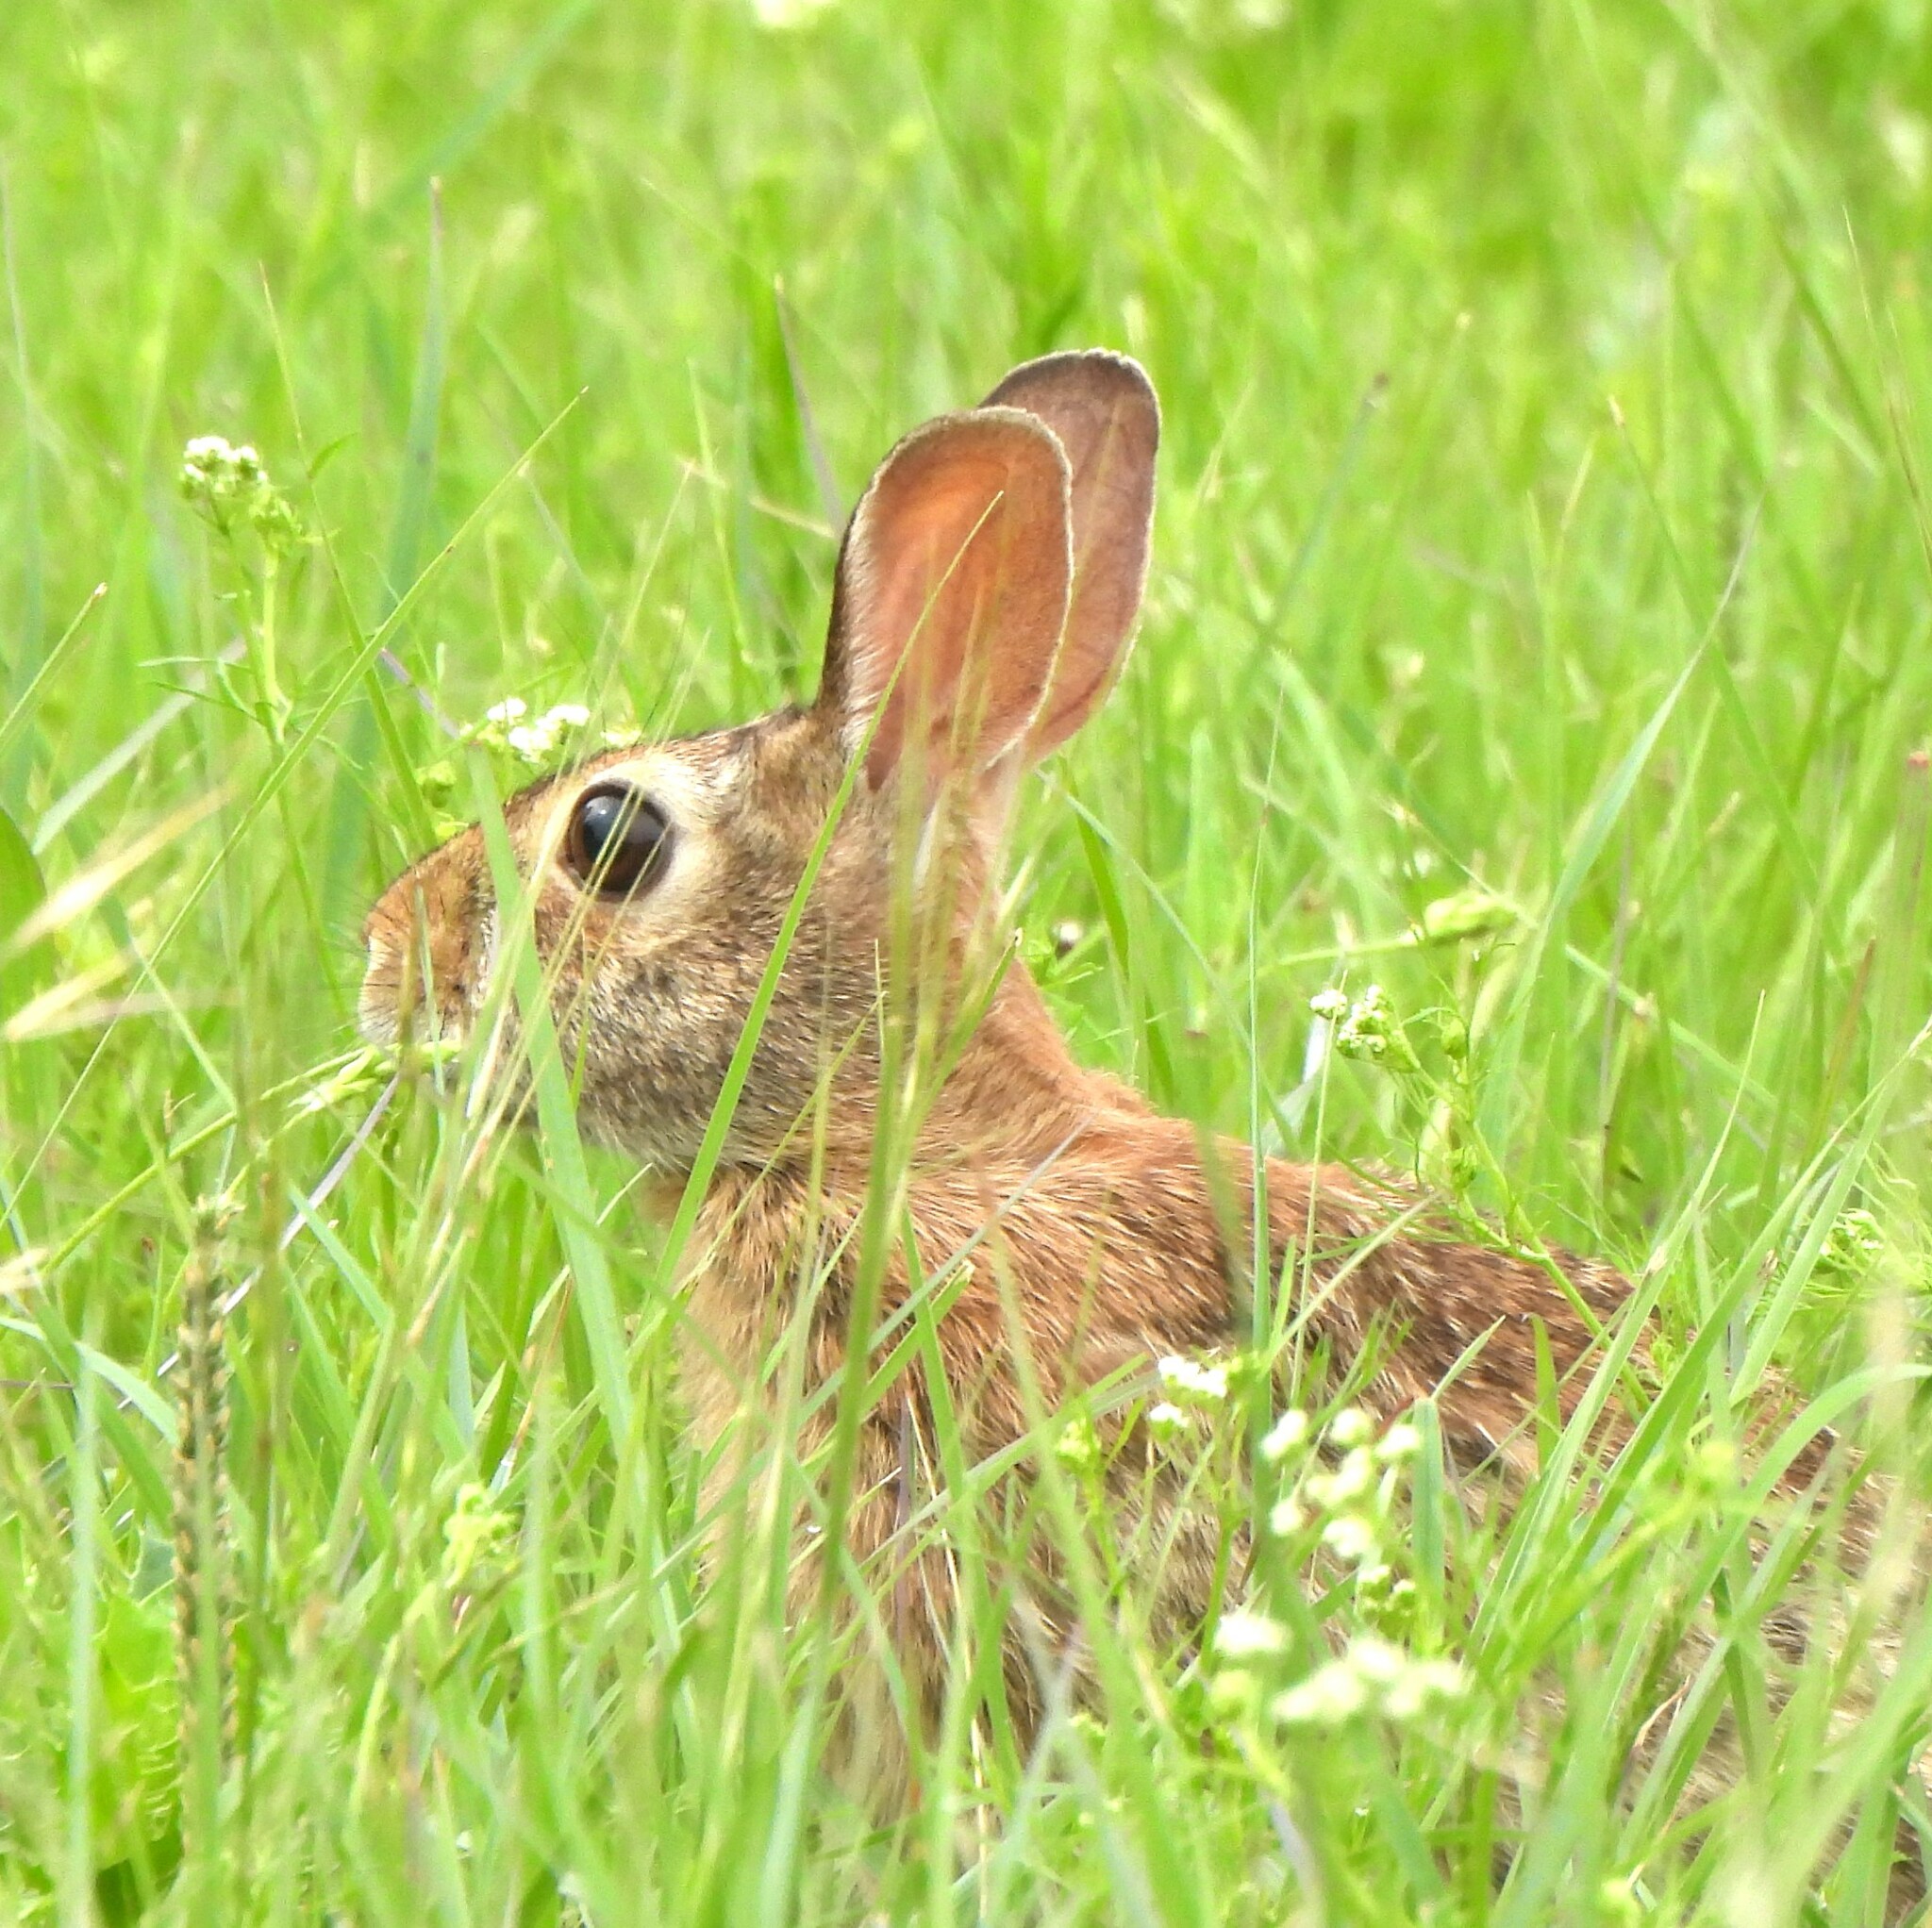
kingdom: Animalia
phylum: Chordata
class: Mammalia
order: Lagomorpha
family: Leporidae
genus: Sylvilagus
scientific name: Sylvilagus floridanus
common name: Eastern cottontail
